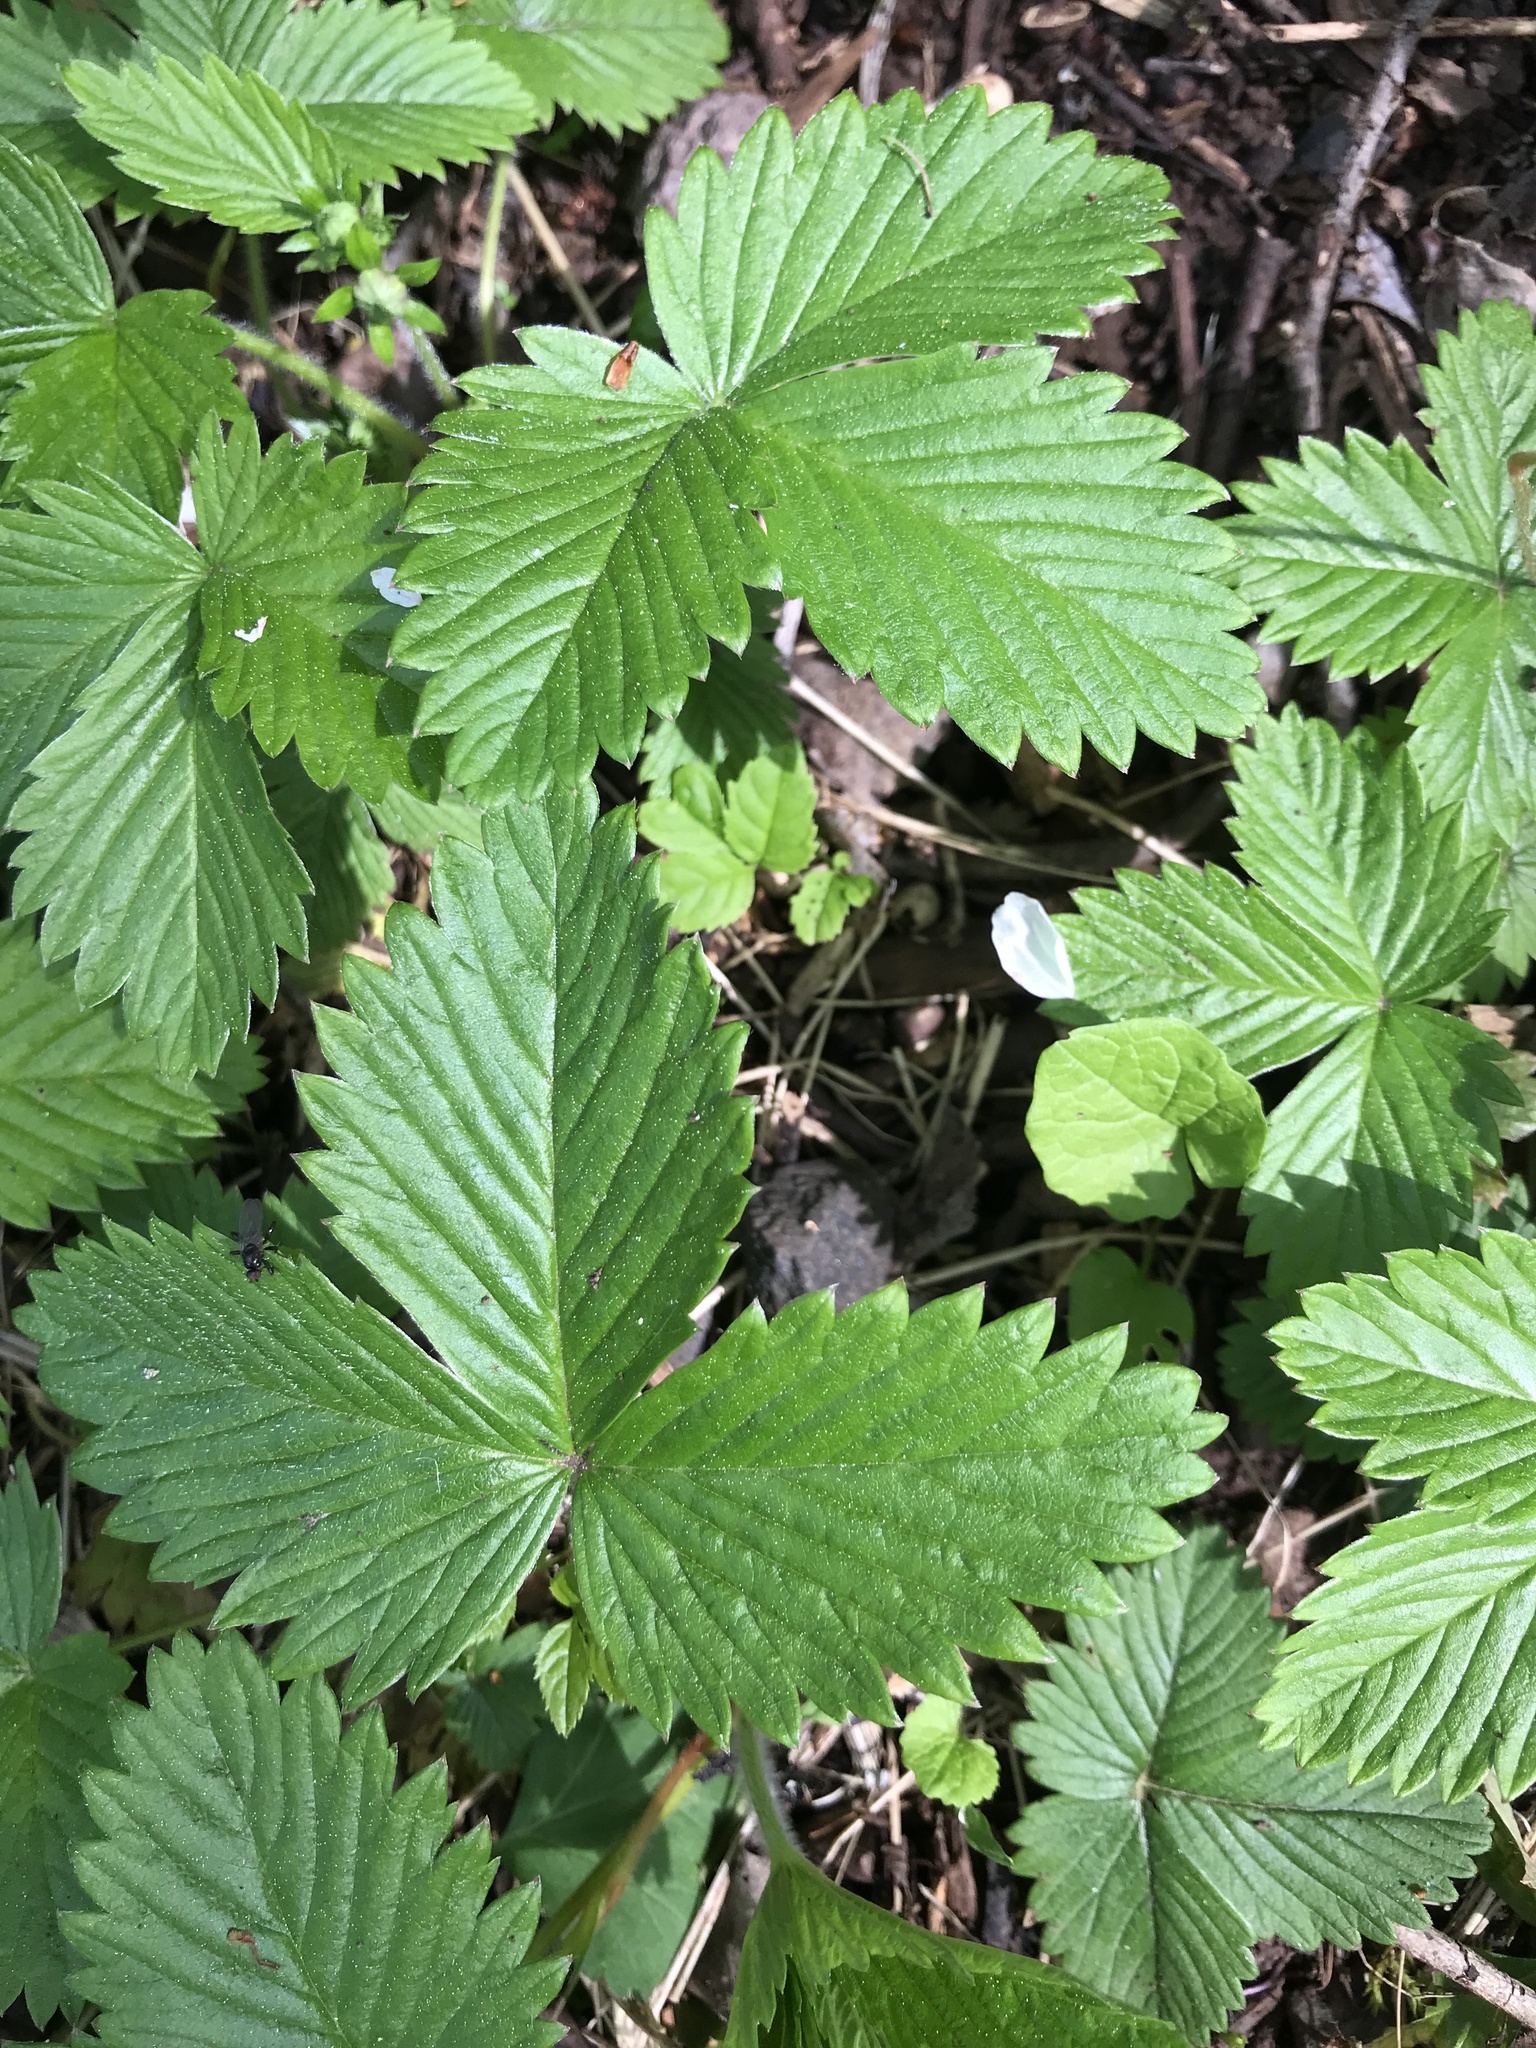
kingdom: Plantae
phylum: Tracheophyta
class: Magnoliopsida
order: Rosales
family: Rosaceae
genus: Fragaria
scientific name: Fragaria vesca
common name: Wild strawberry
